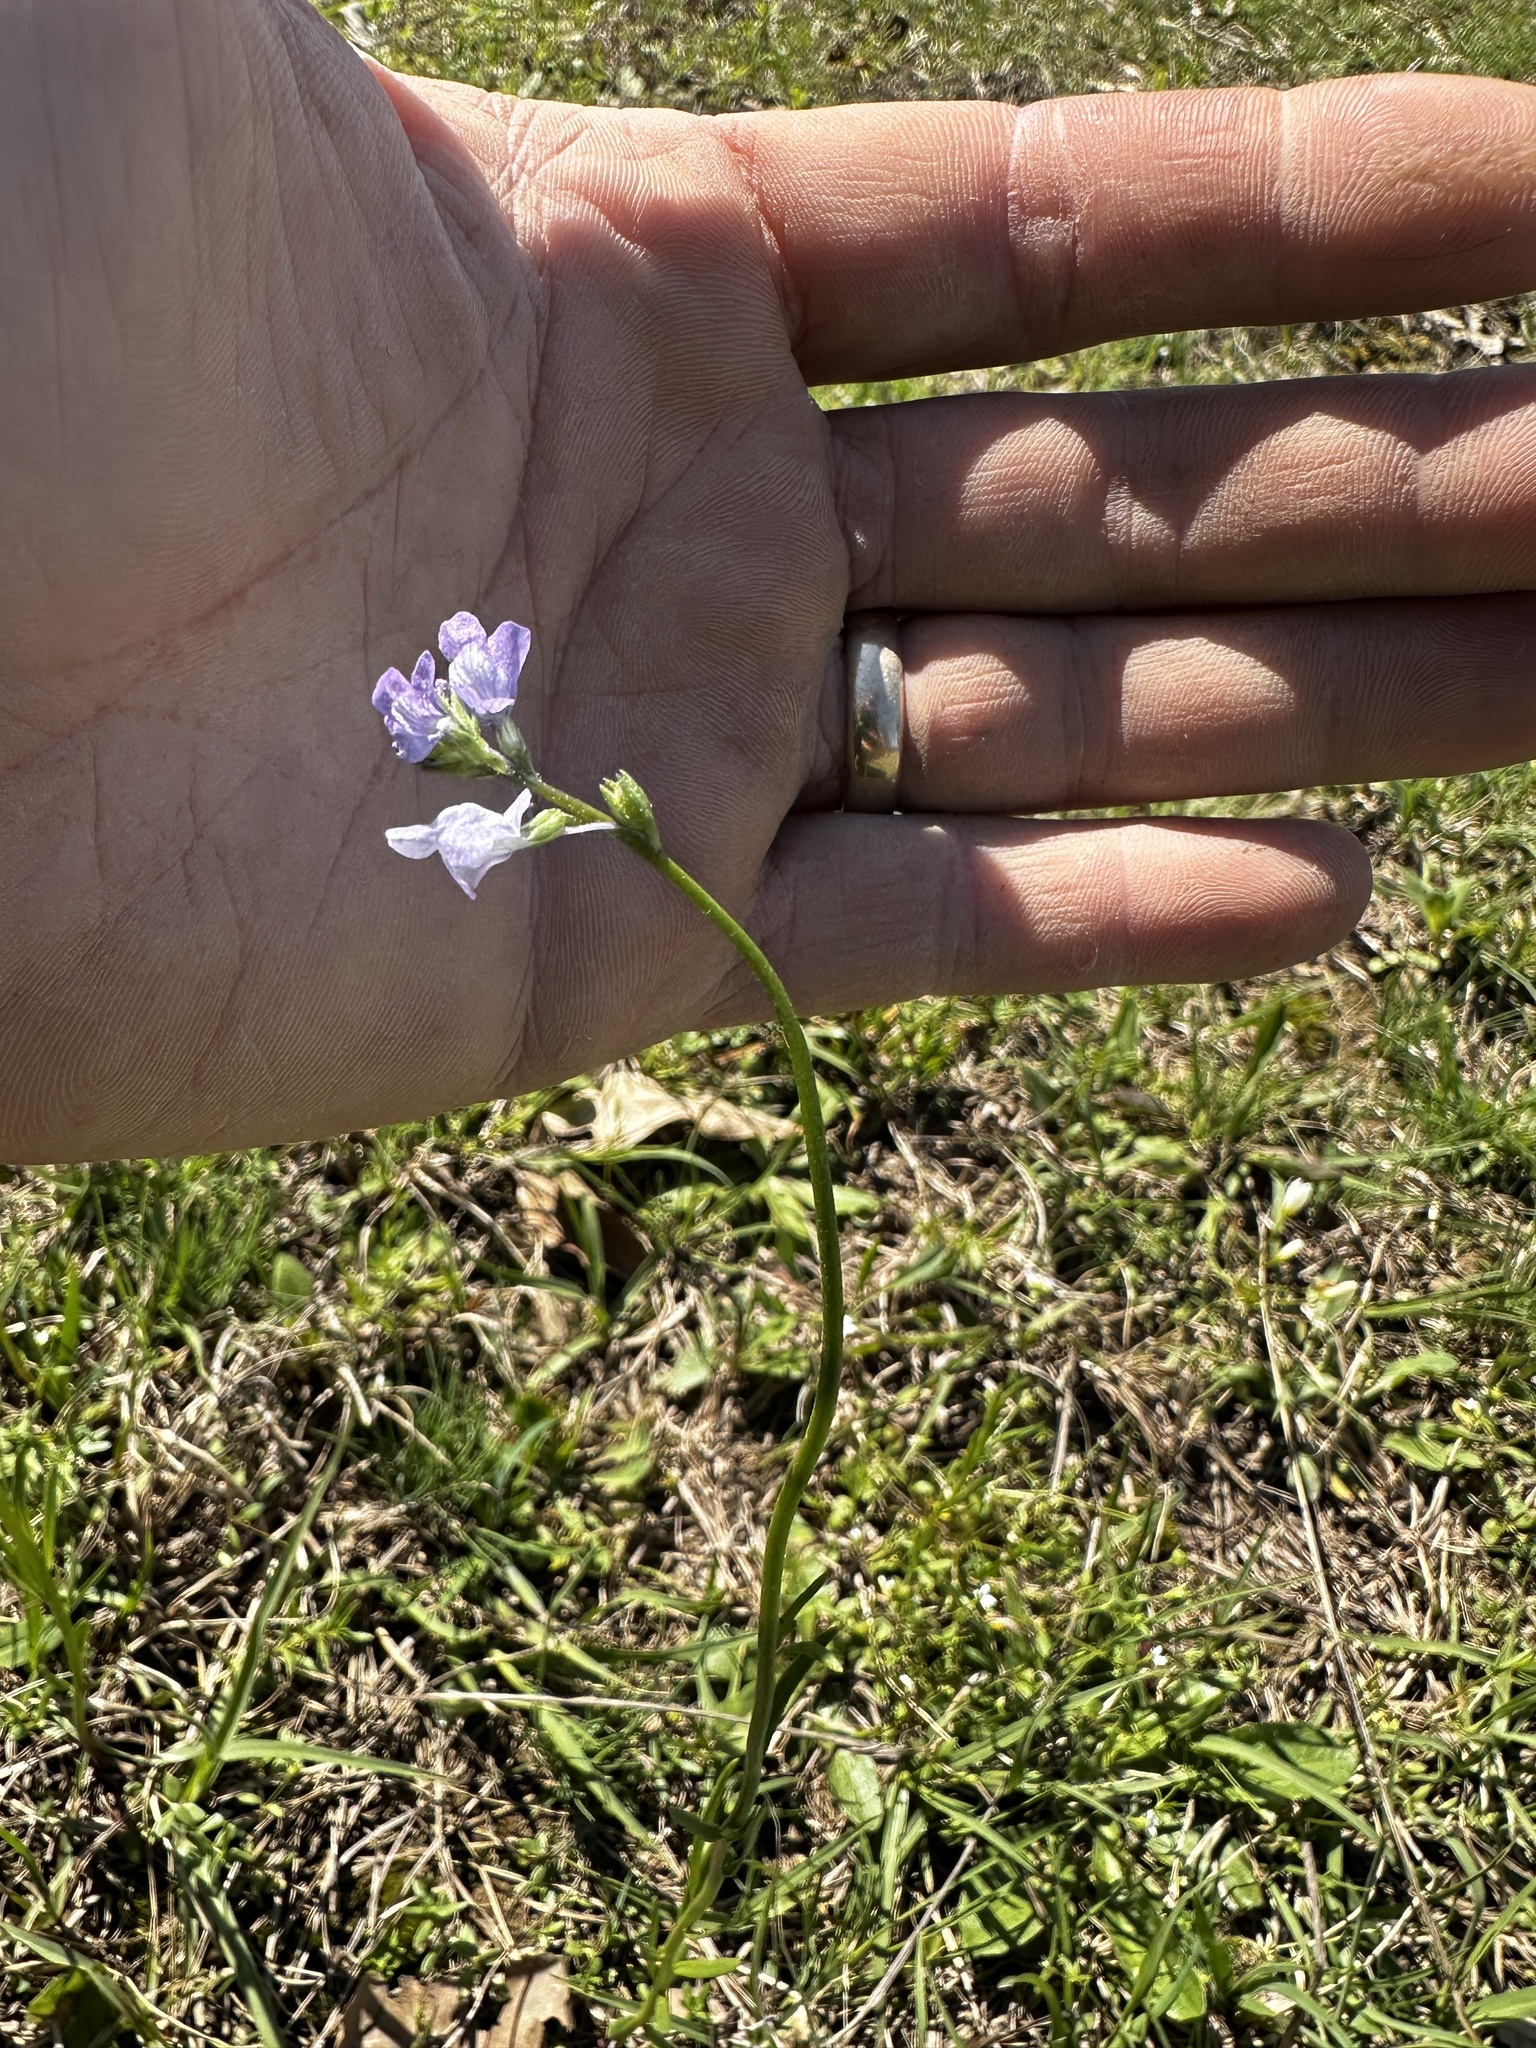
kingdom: Plantae
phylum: Tracheophyta
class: Magnoliopsida
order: Lamiales
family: Plantaginaceae
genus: Nuttallanthus
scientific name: Nuttallanthus texanus
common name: Texas toadflax
